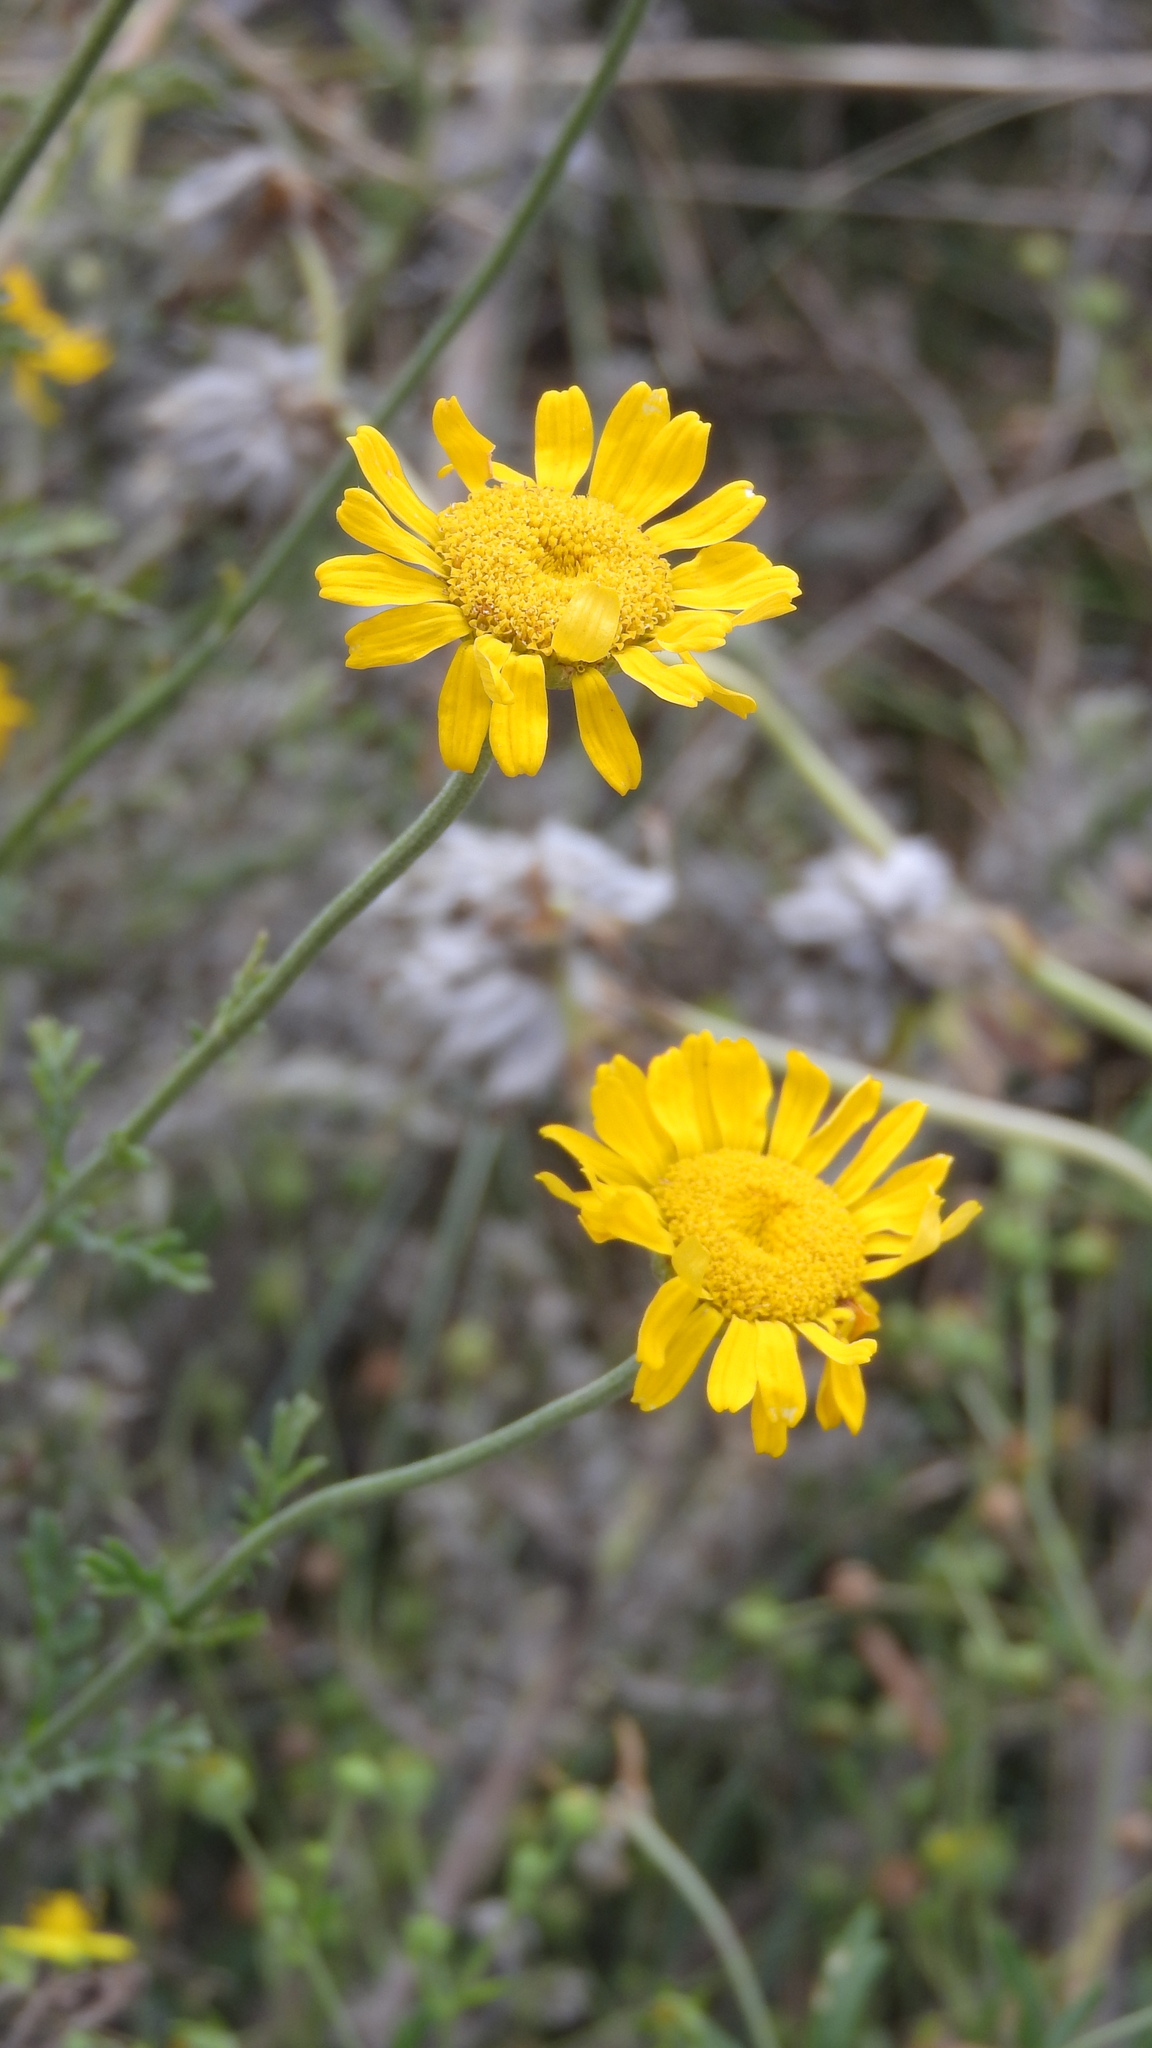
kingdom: Plantae
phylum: Tracheophyta
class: Magnoliopsida
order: Asterales
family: Asteraceae
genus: Cota
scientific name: Cota tinctoria
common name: Golden chamomile
